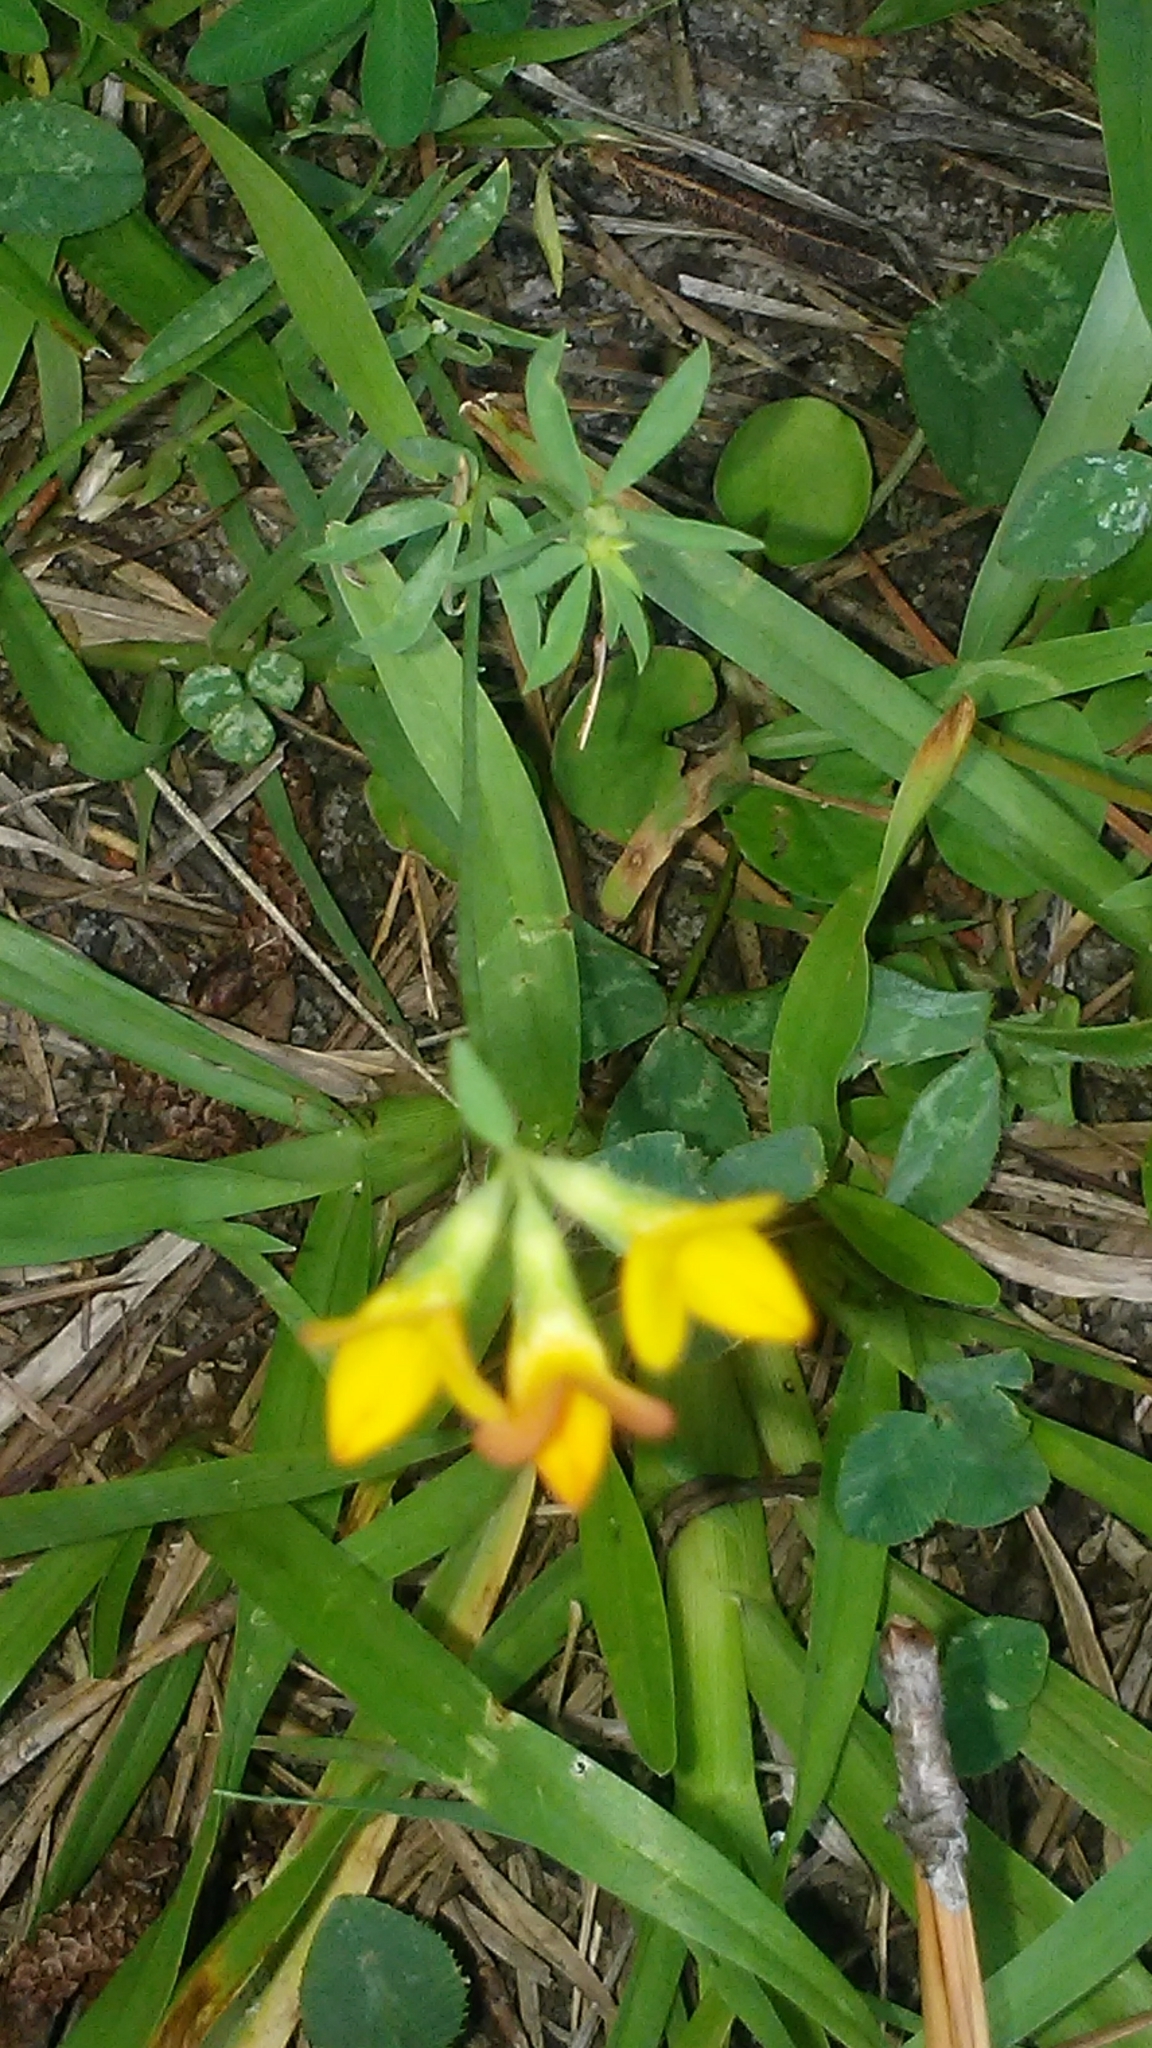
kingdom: Plantae
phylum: Tracheophyta
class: Magnoliopsida
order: Fabales
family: Fabaceae
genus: Lotus
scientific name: Lotus corniculatus
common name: Common bird's-foot-trefoil
